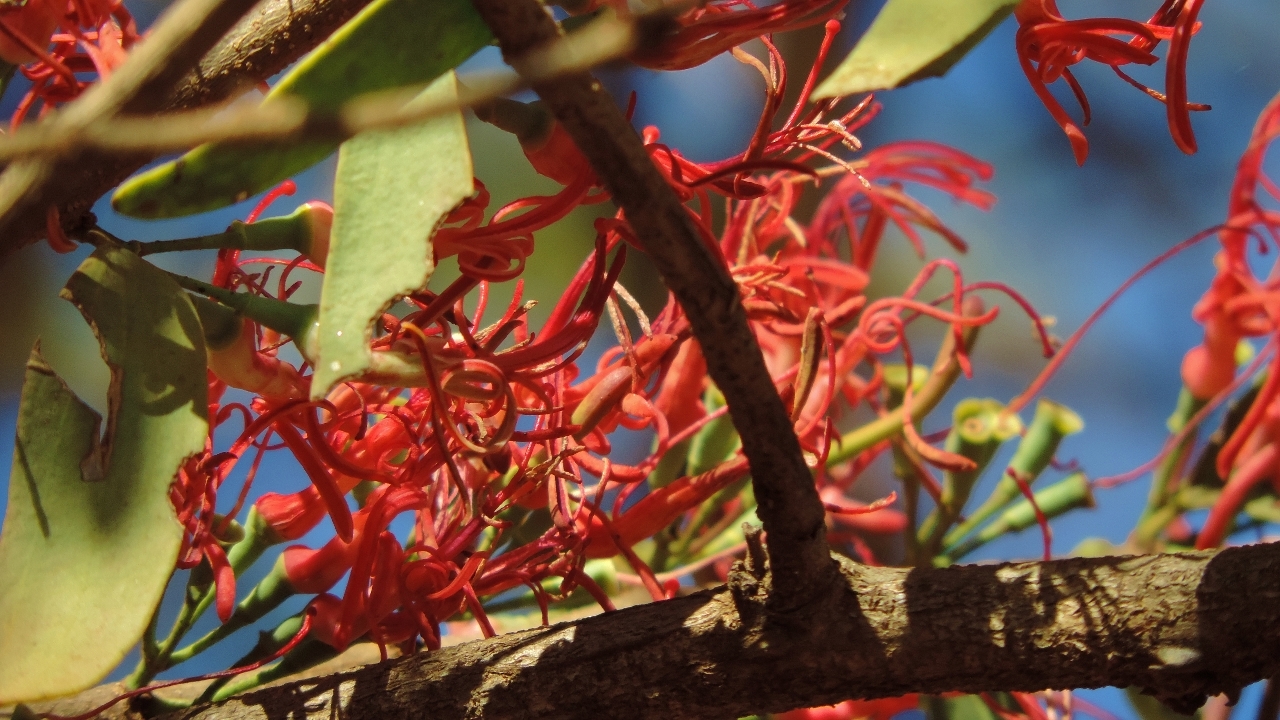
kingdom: Plantae
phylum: Tracheophyta
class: Magnoliopsida
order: Santalales
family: Loranthaceae
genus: Plicosepalus
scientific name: Plicosepalus kalachariensis
